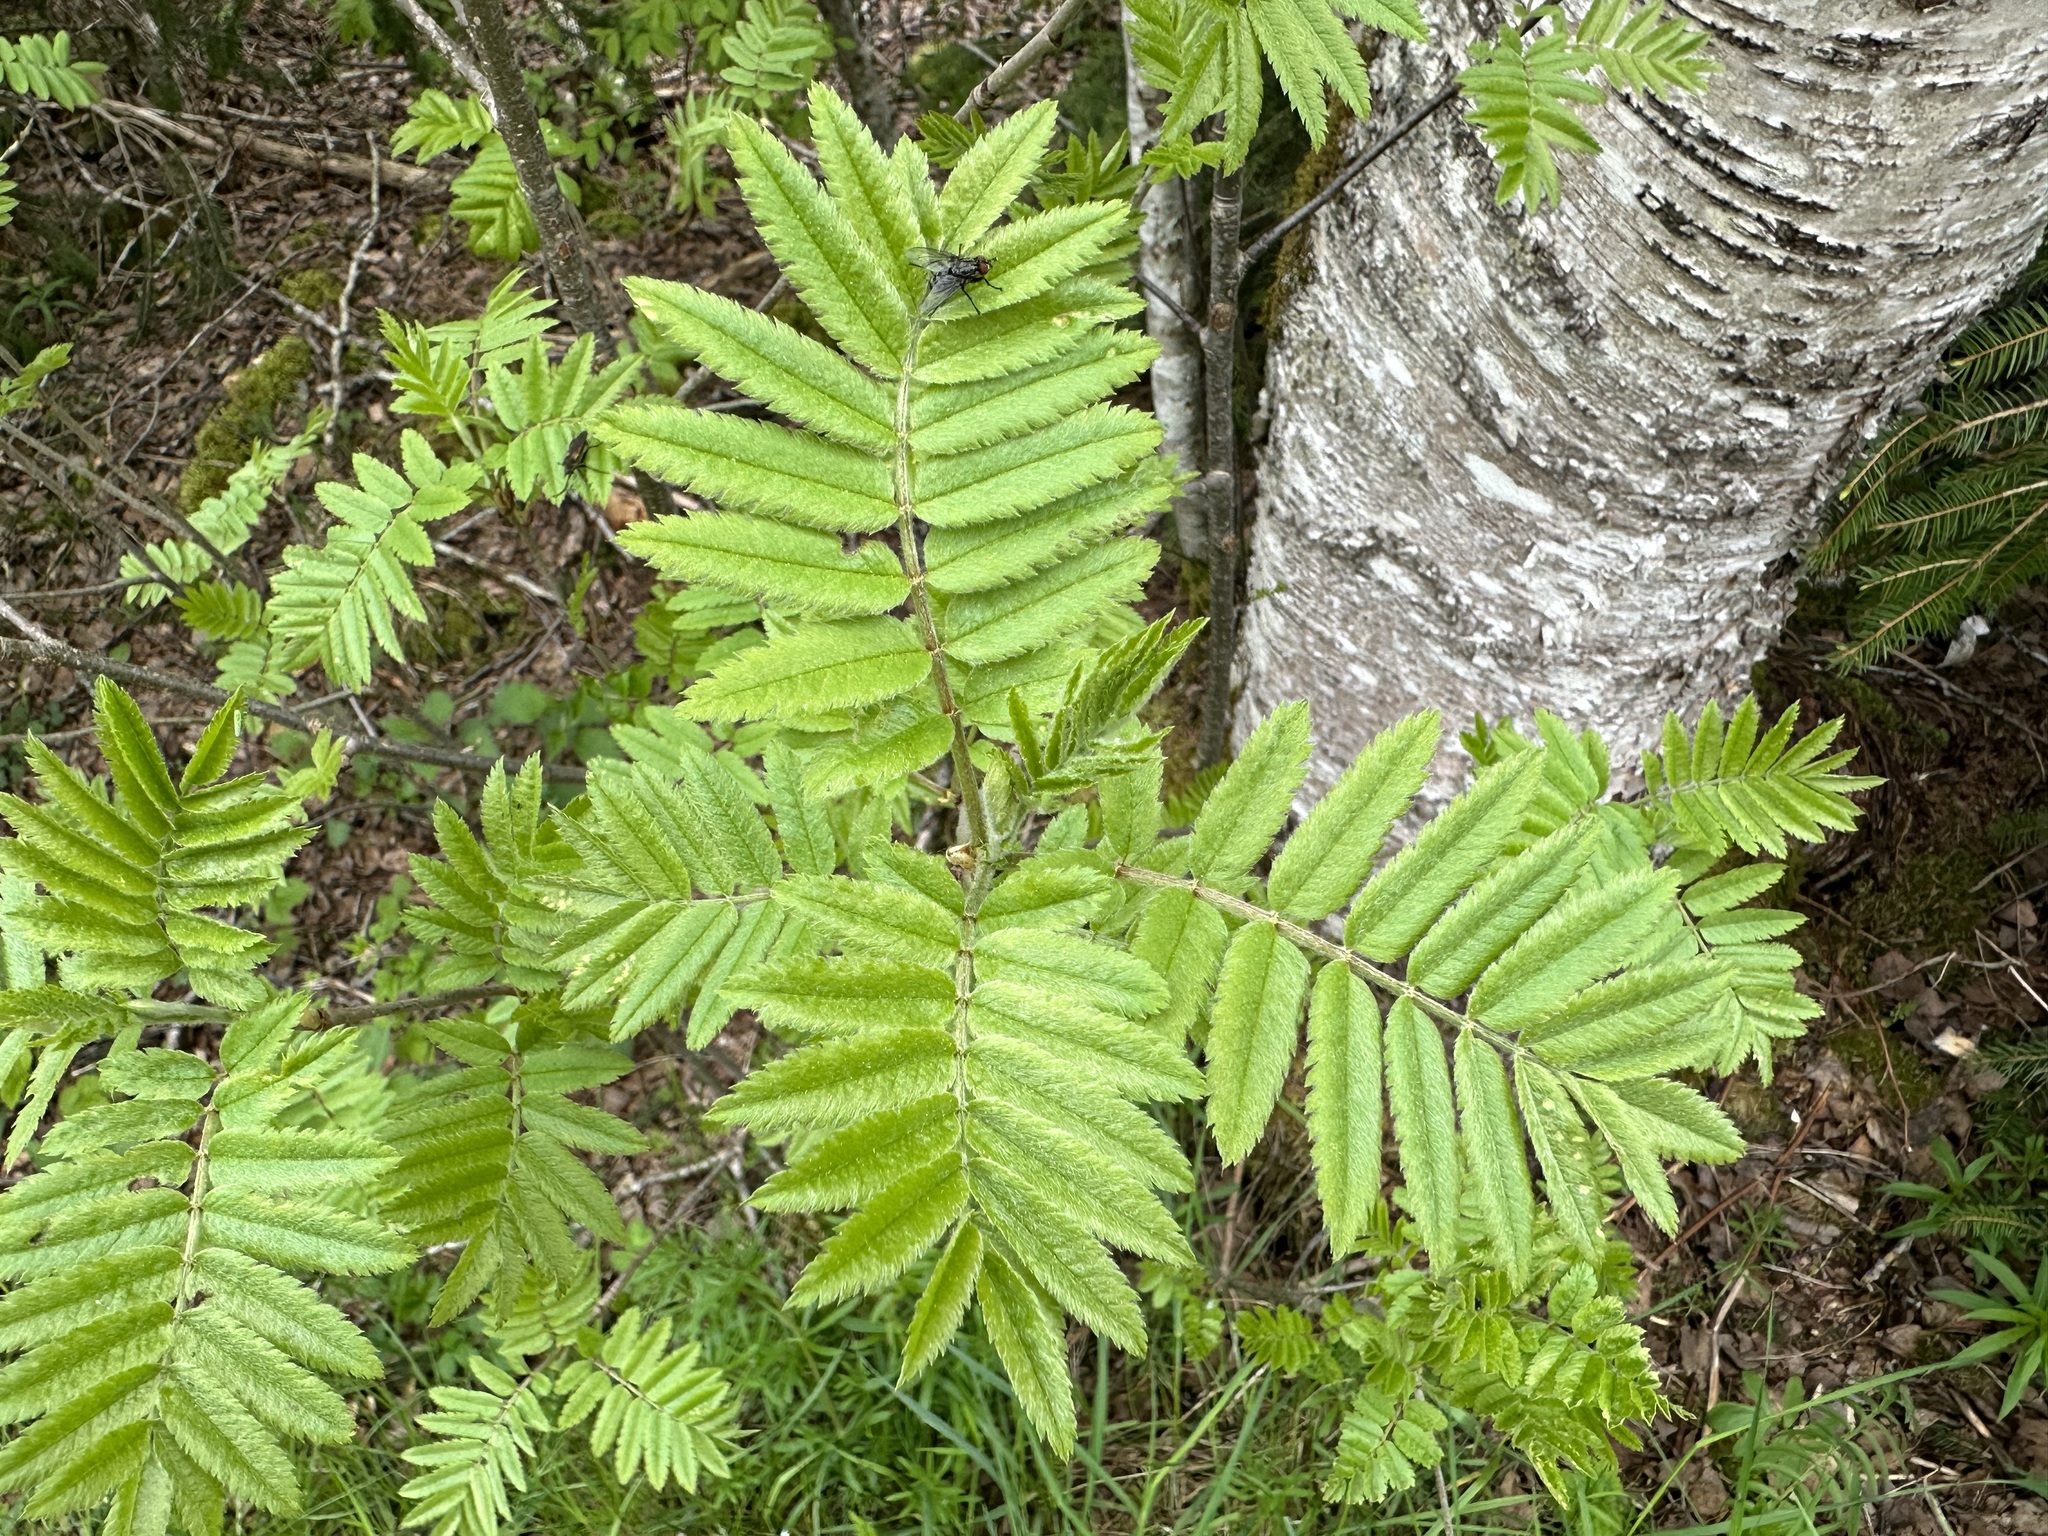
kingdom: Plantae
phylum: Tracheophyta
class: Magnoliopsida
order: Rosales
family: Rosaceae
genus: Sorbus
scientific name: Sorbus aucuparia
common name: Rowan
